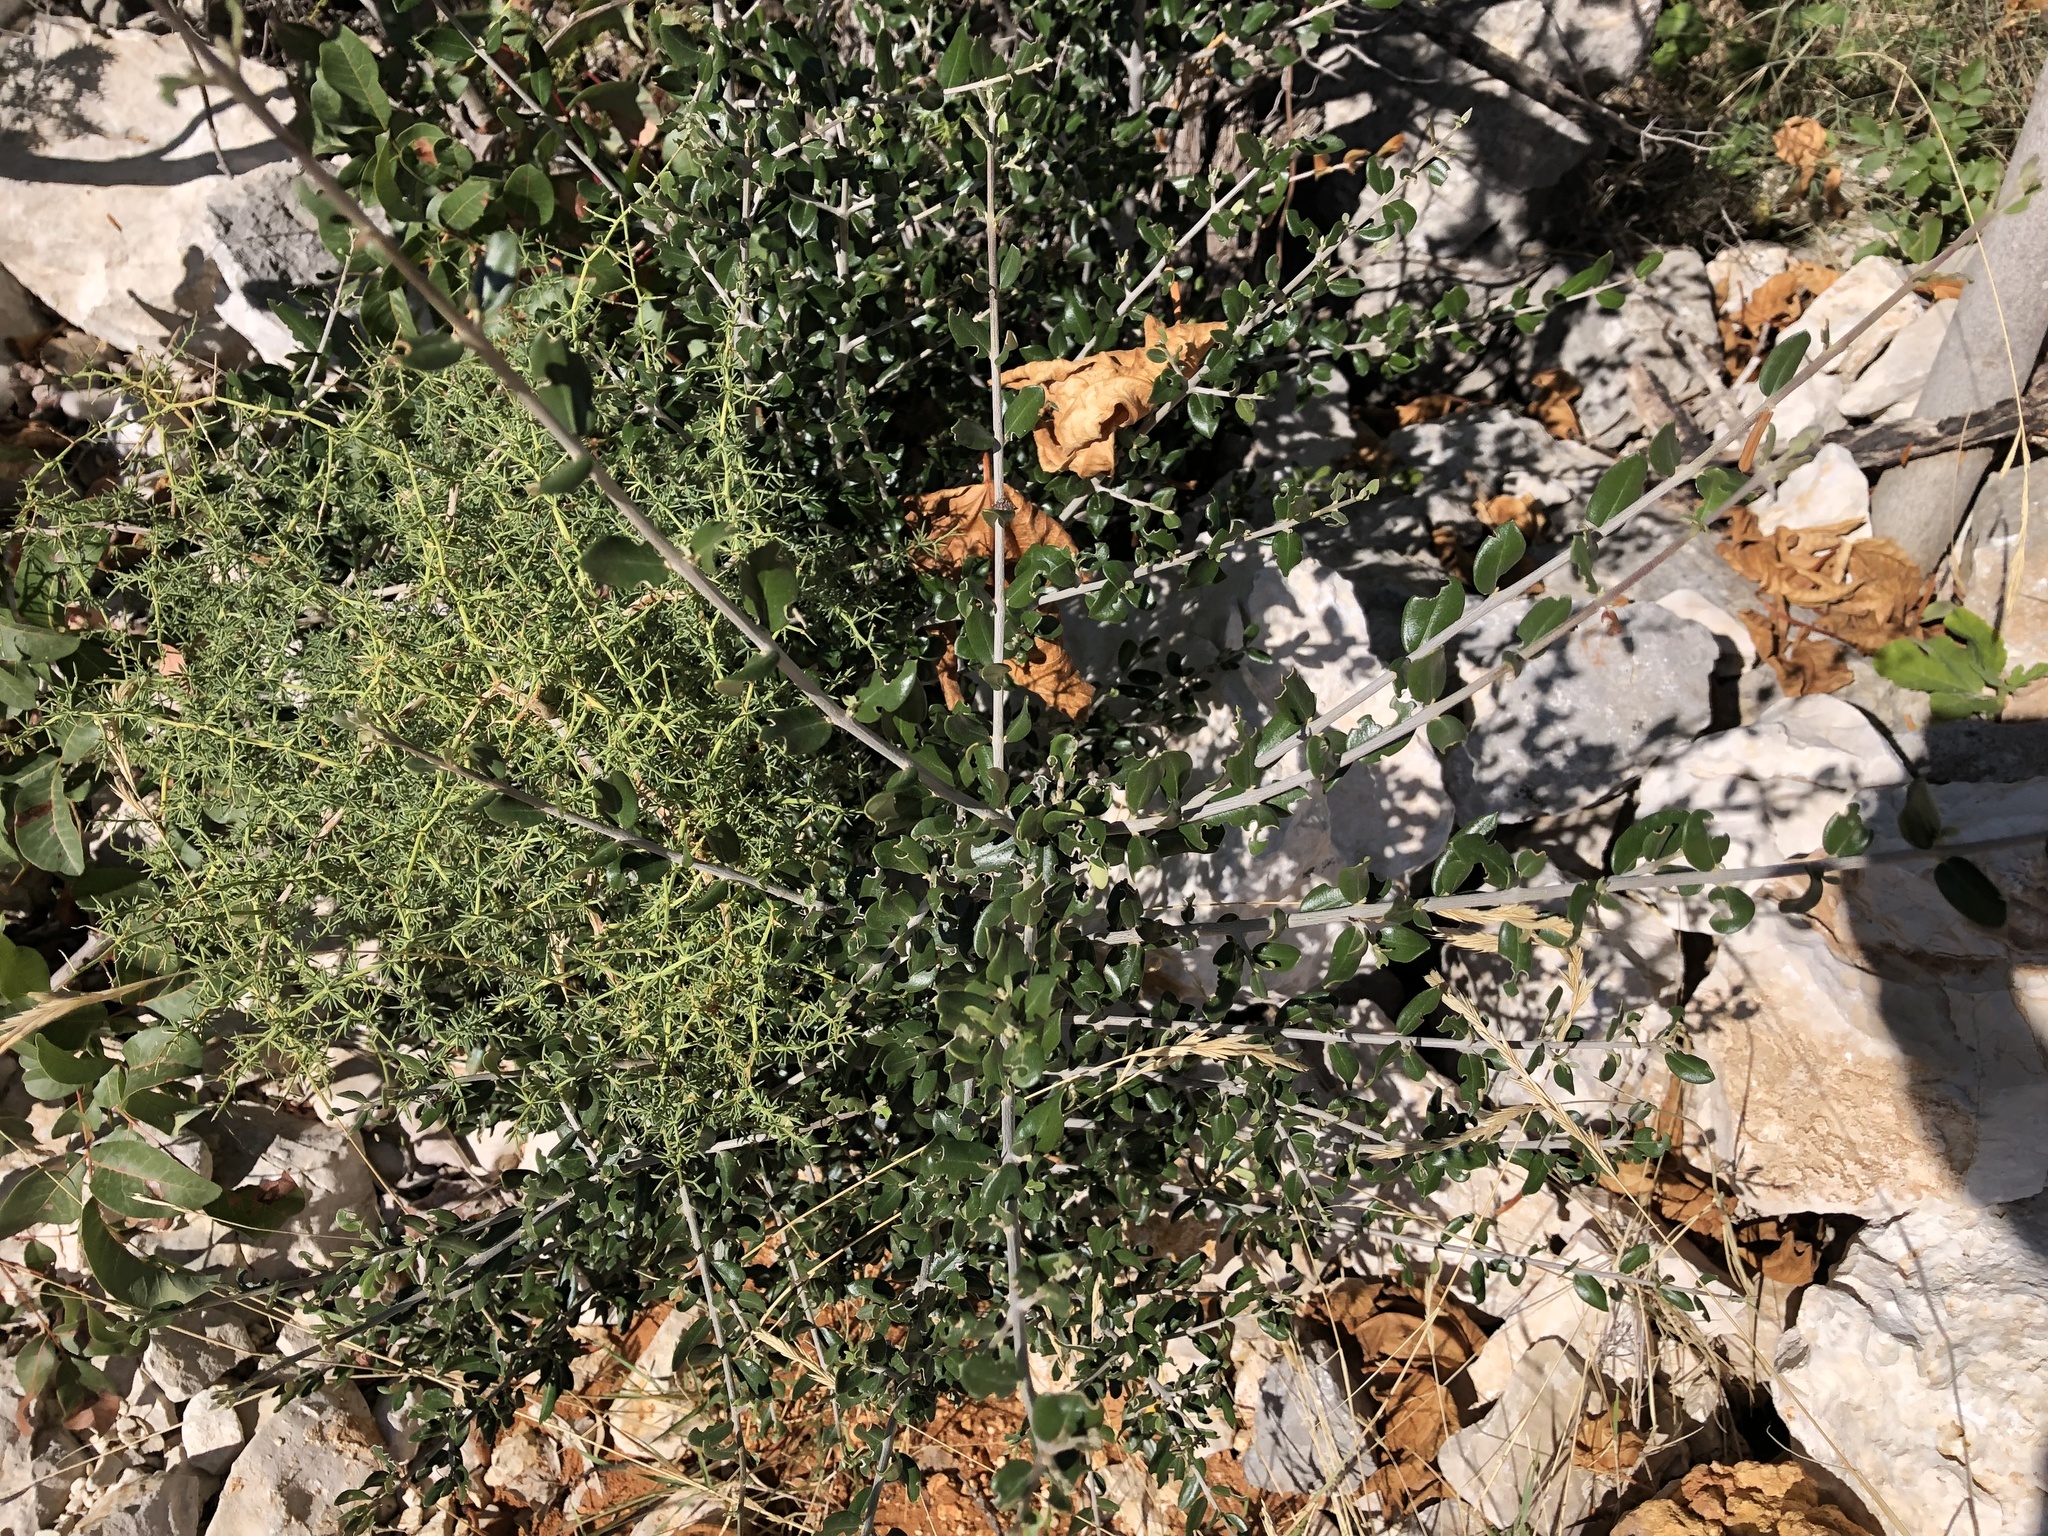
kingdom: Plantae
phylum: Tracheophyta
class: Magnoliopsida
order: Lamiales
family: Oleaceae
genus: Phillyrea
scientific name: Phillyrea latifolia
